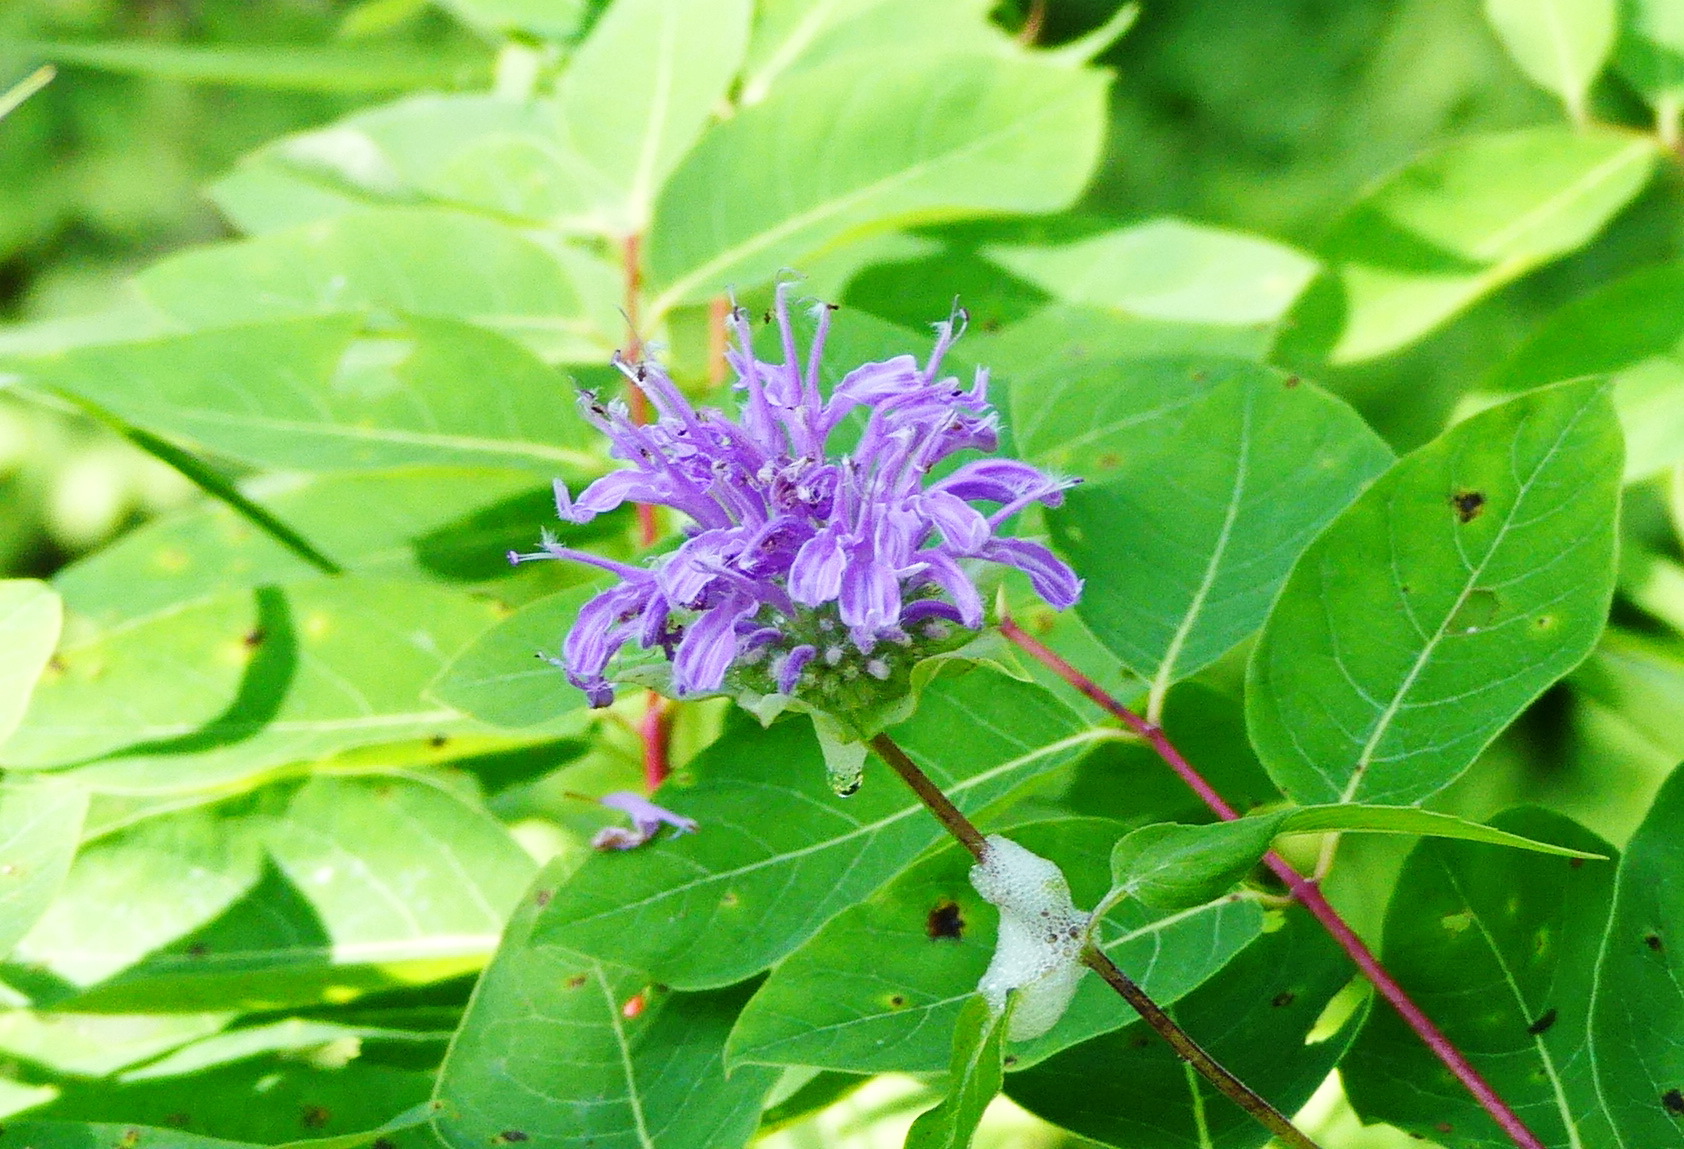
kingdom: Plantae
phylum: Tracheophyta
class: Magnoliopsida
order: Lamiales
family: Lamiaceae
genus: Monarda
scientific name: Monarda fistulosa
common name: Purple beebalm
